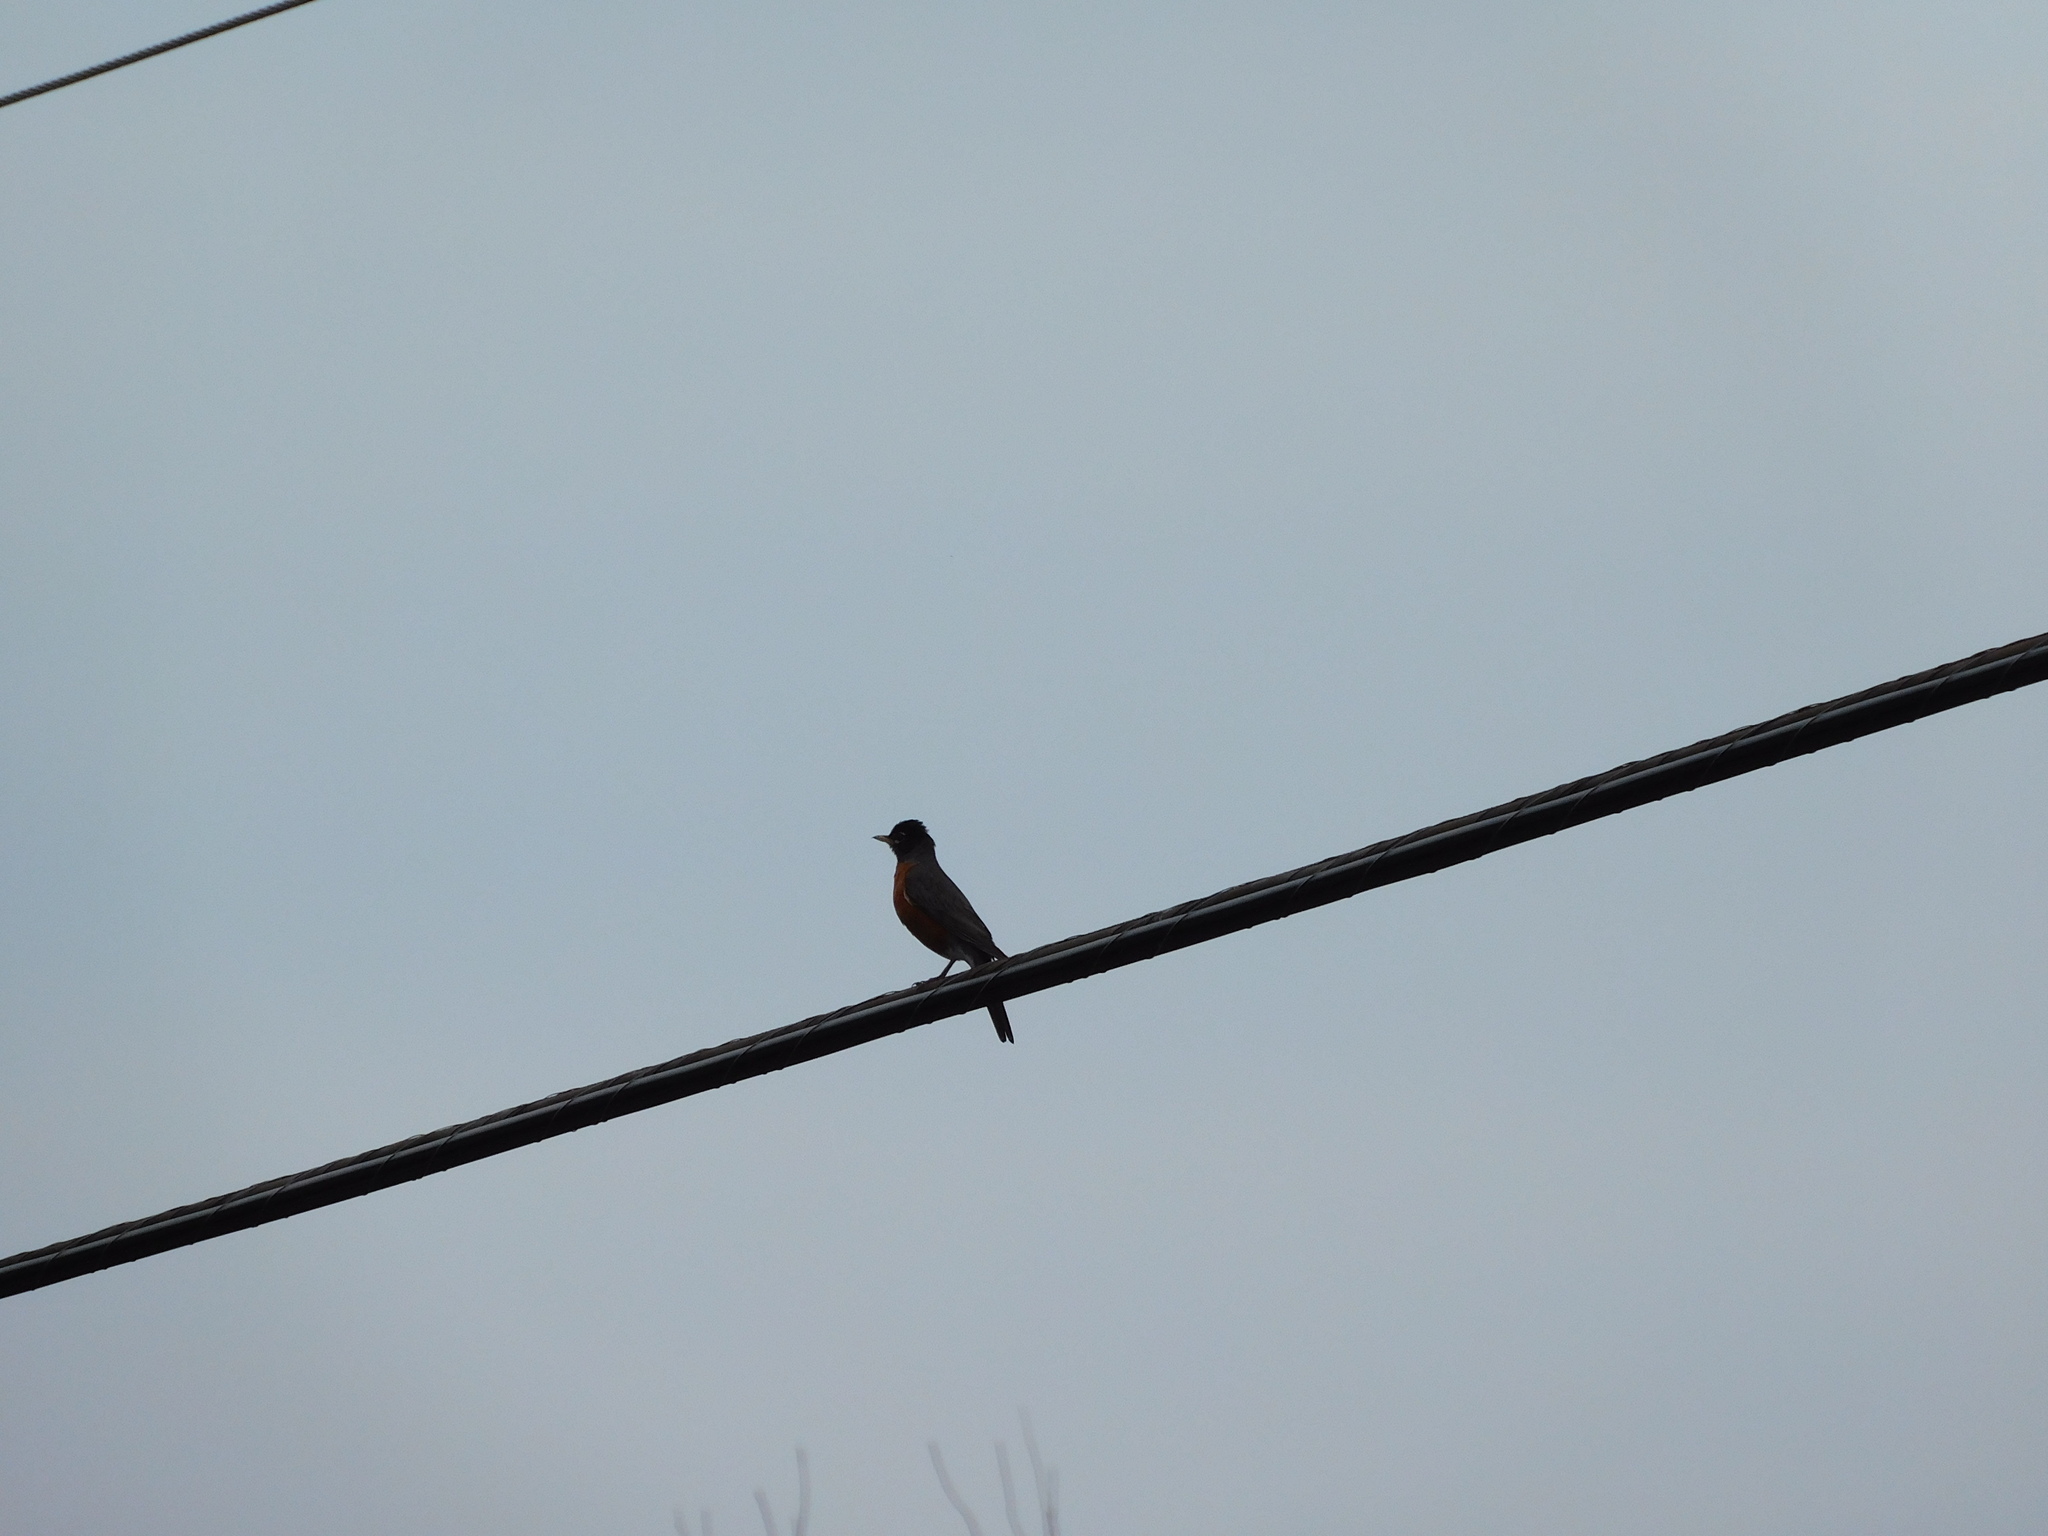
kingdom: Animalia
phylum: Chordata
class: Aves
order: Passeriformes
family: Turdidae
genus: Turdus
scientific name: Turdus migratorius
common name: American robin
